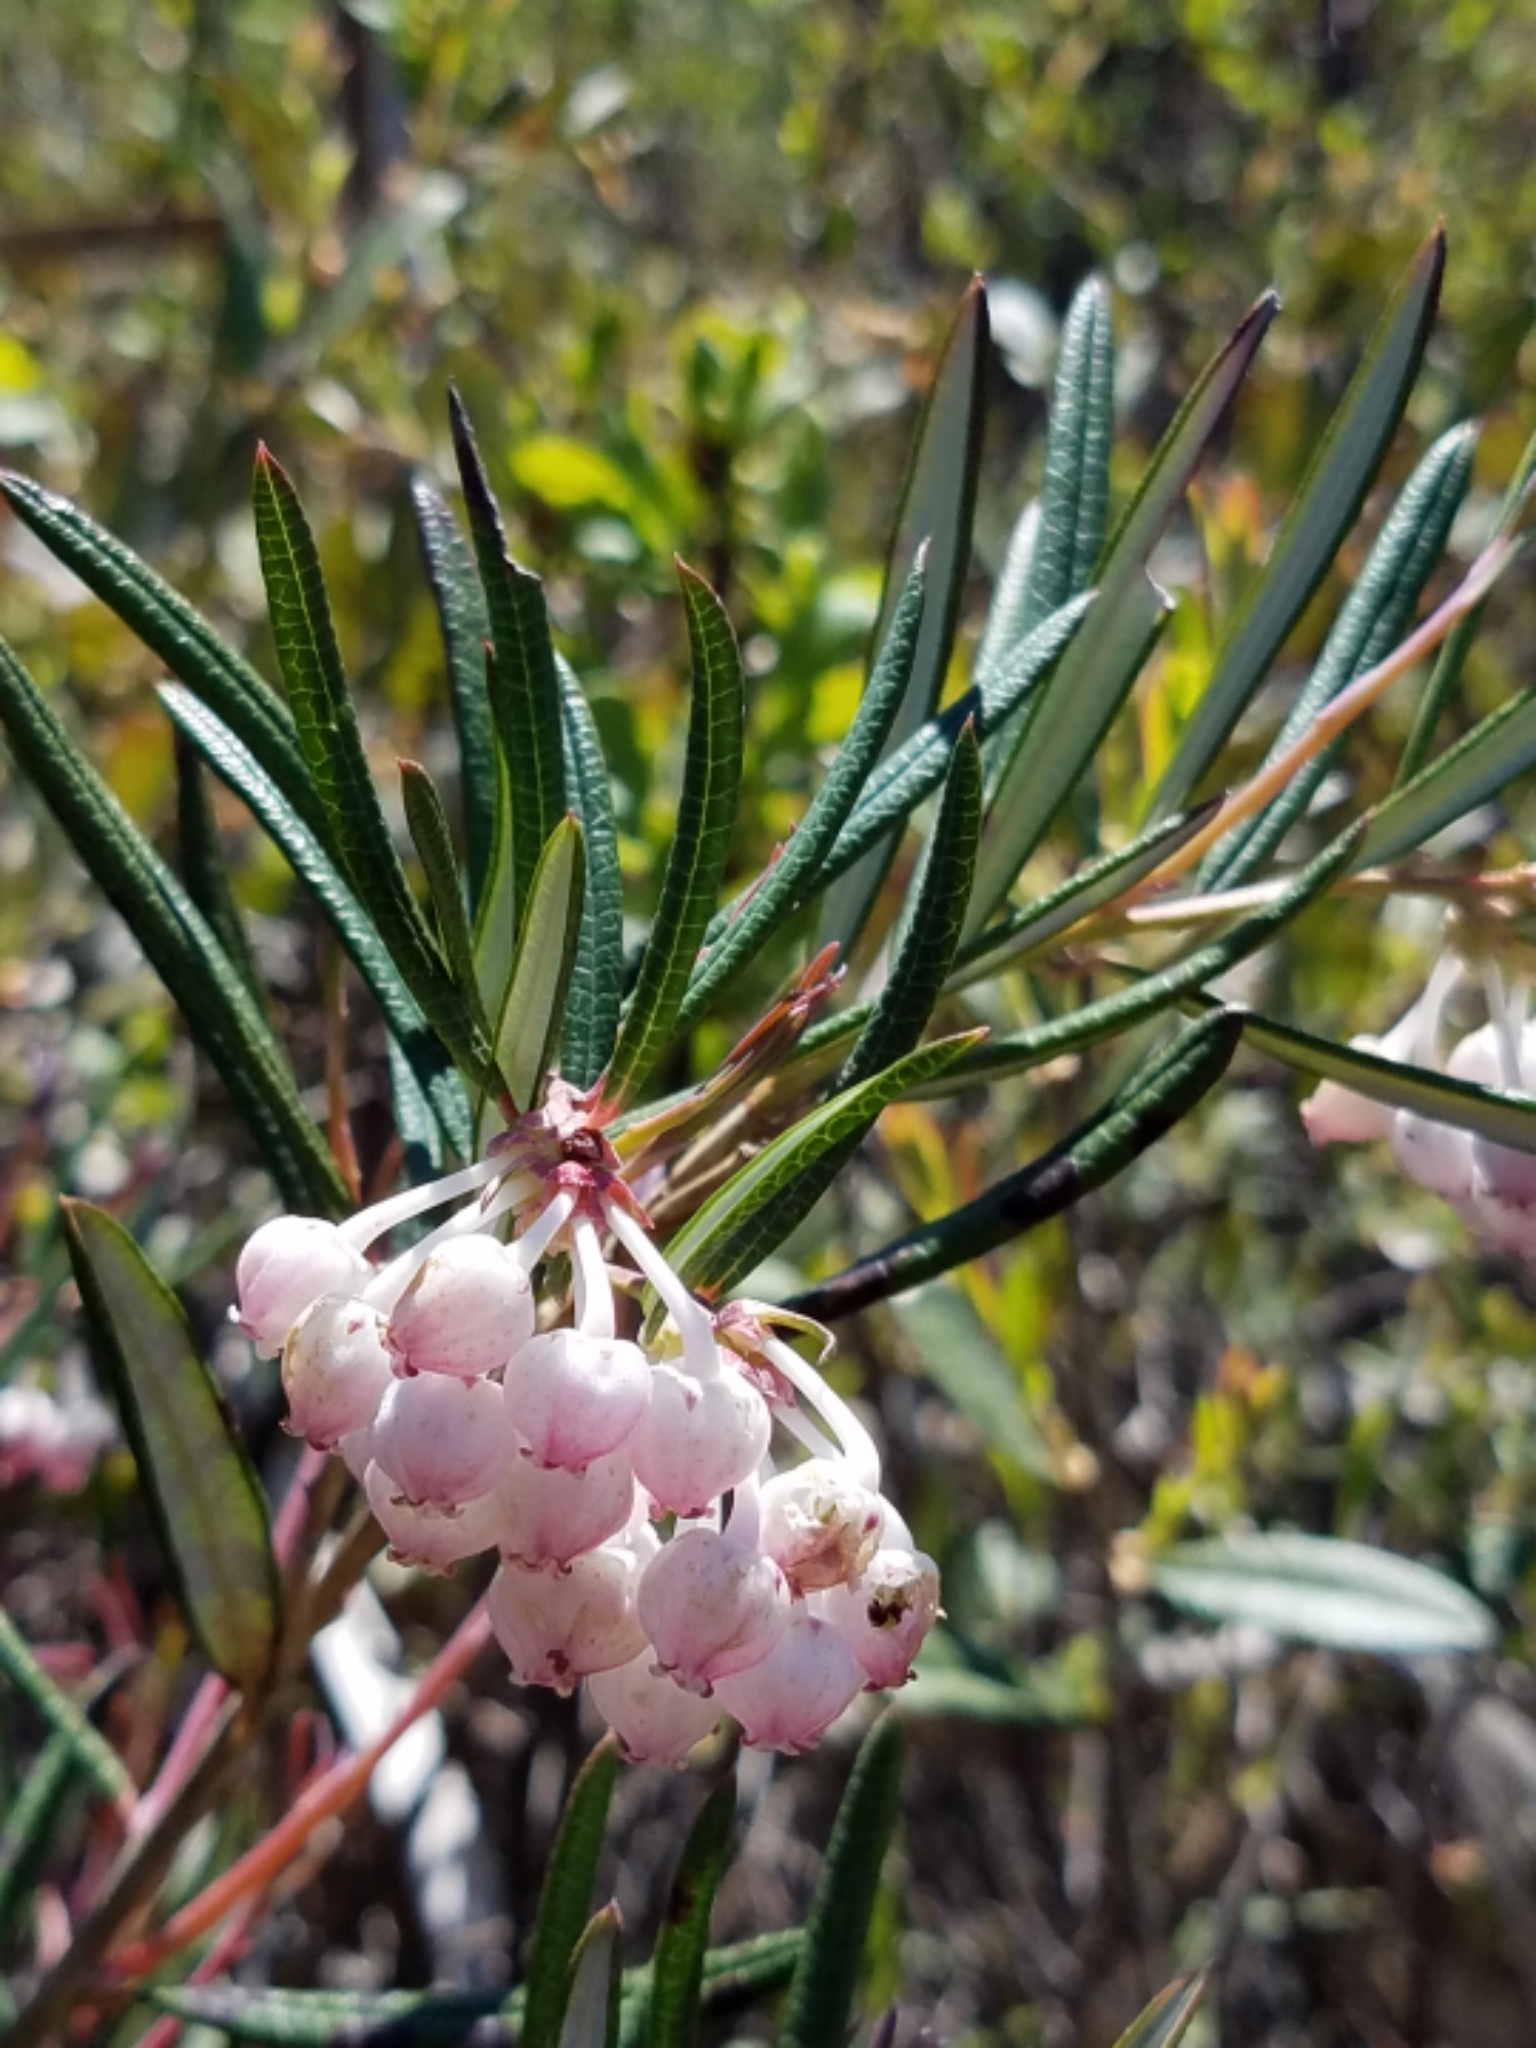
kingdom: Plantae
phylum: Tracheophyta
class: Magnoliopsida
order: Ericales
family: Ericaceae
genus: Andromeda
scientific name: Andromeda polifolia
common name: Bog-rosemary
